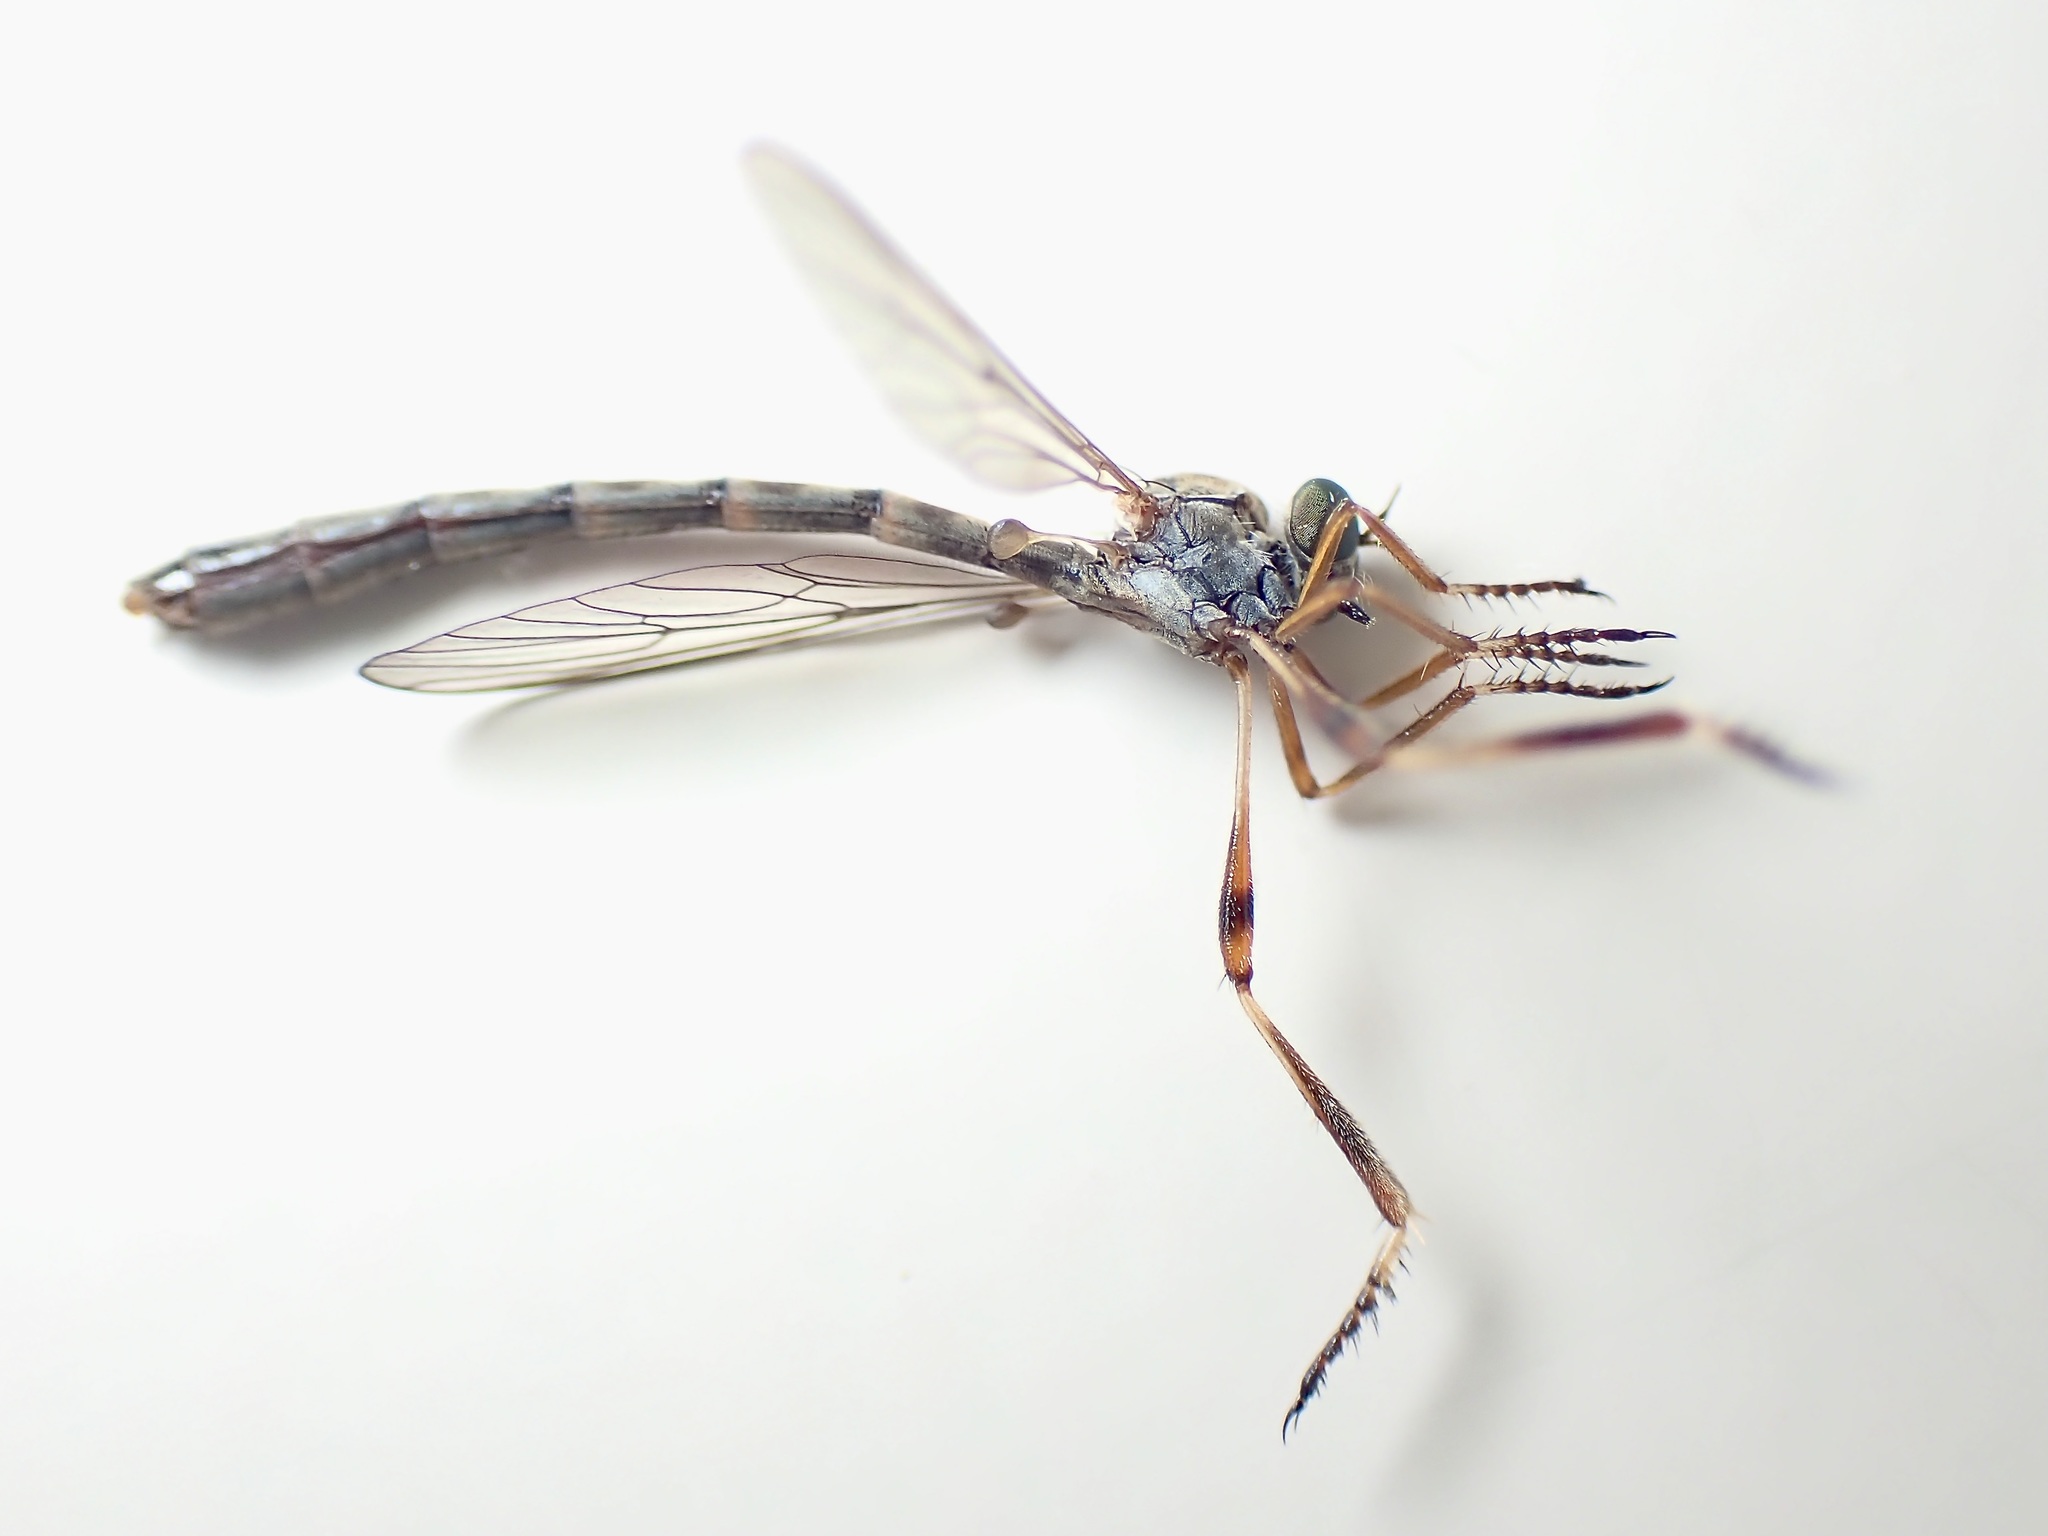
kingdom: Animalia
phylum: Arthropoda
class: Insecta
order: Diptera
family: Asilidae
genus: Leptogaster
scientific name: Leptogaster guttiventris
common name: Dashed slender robberfly
